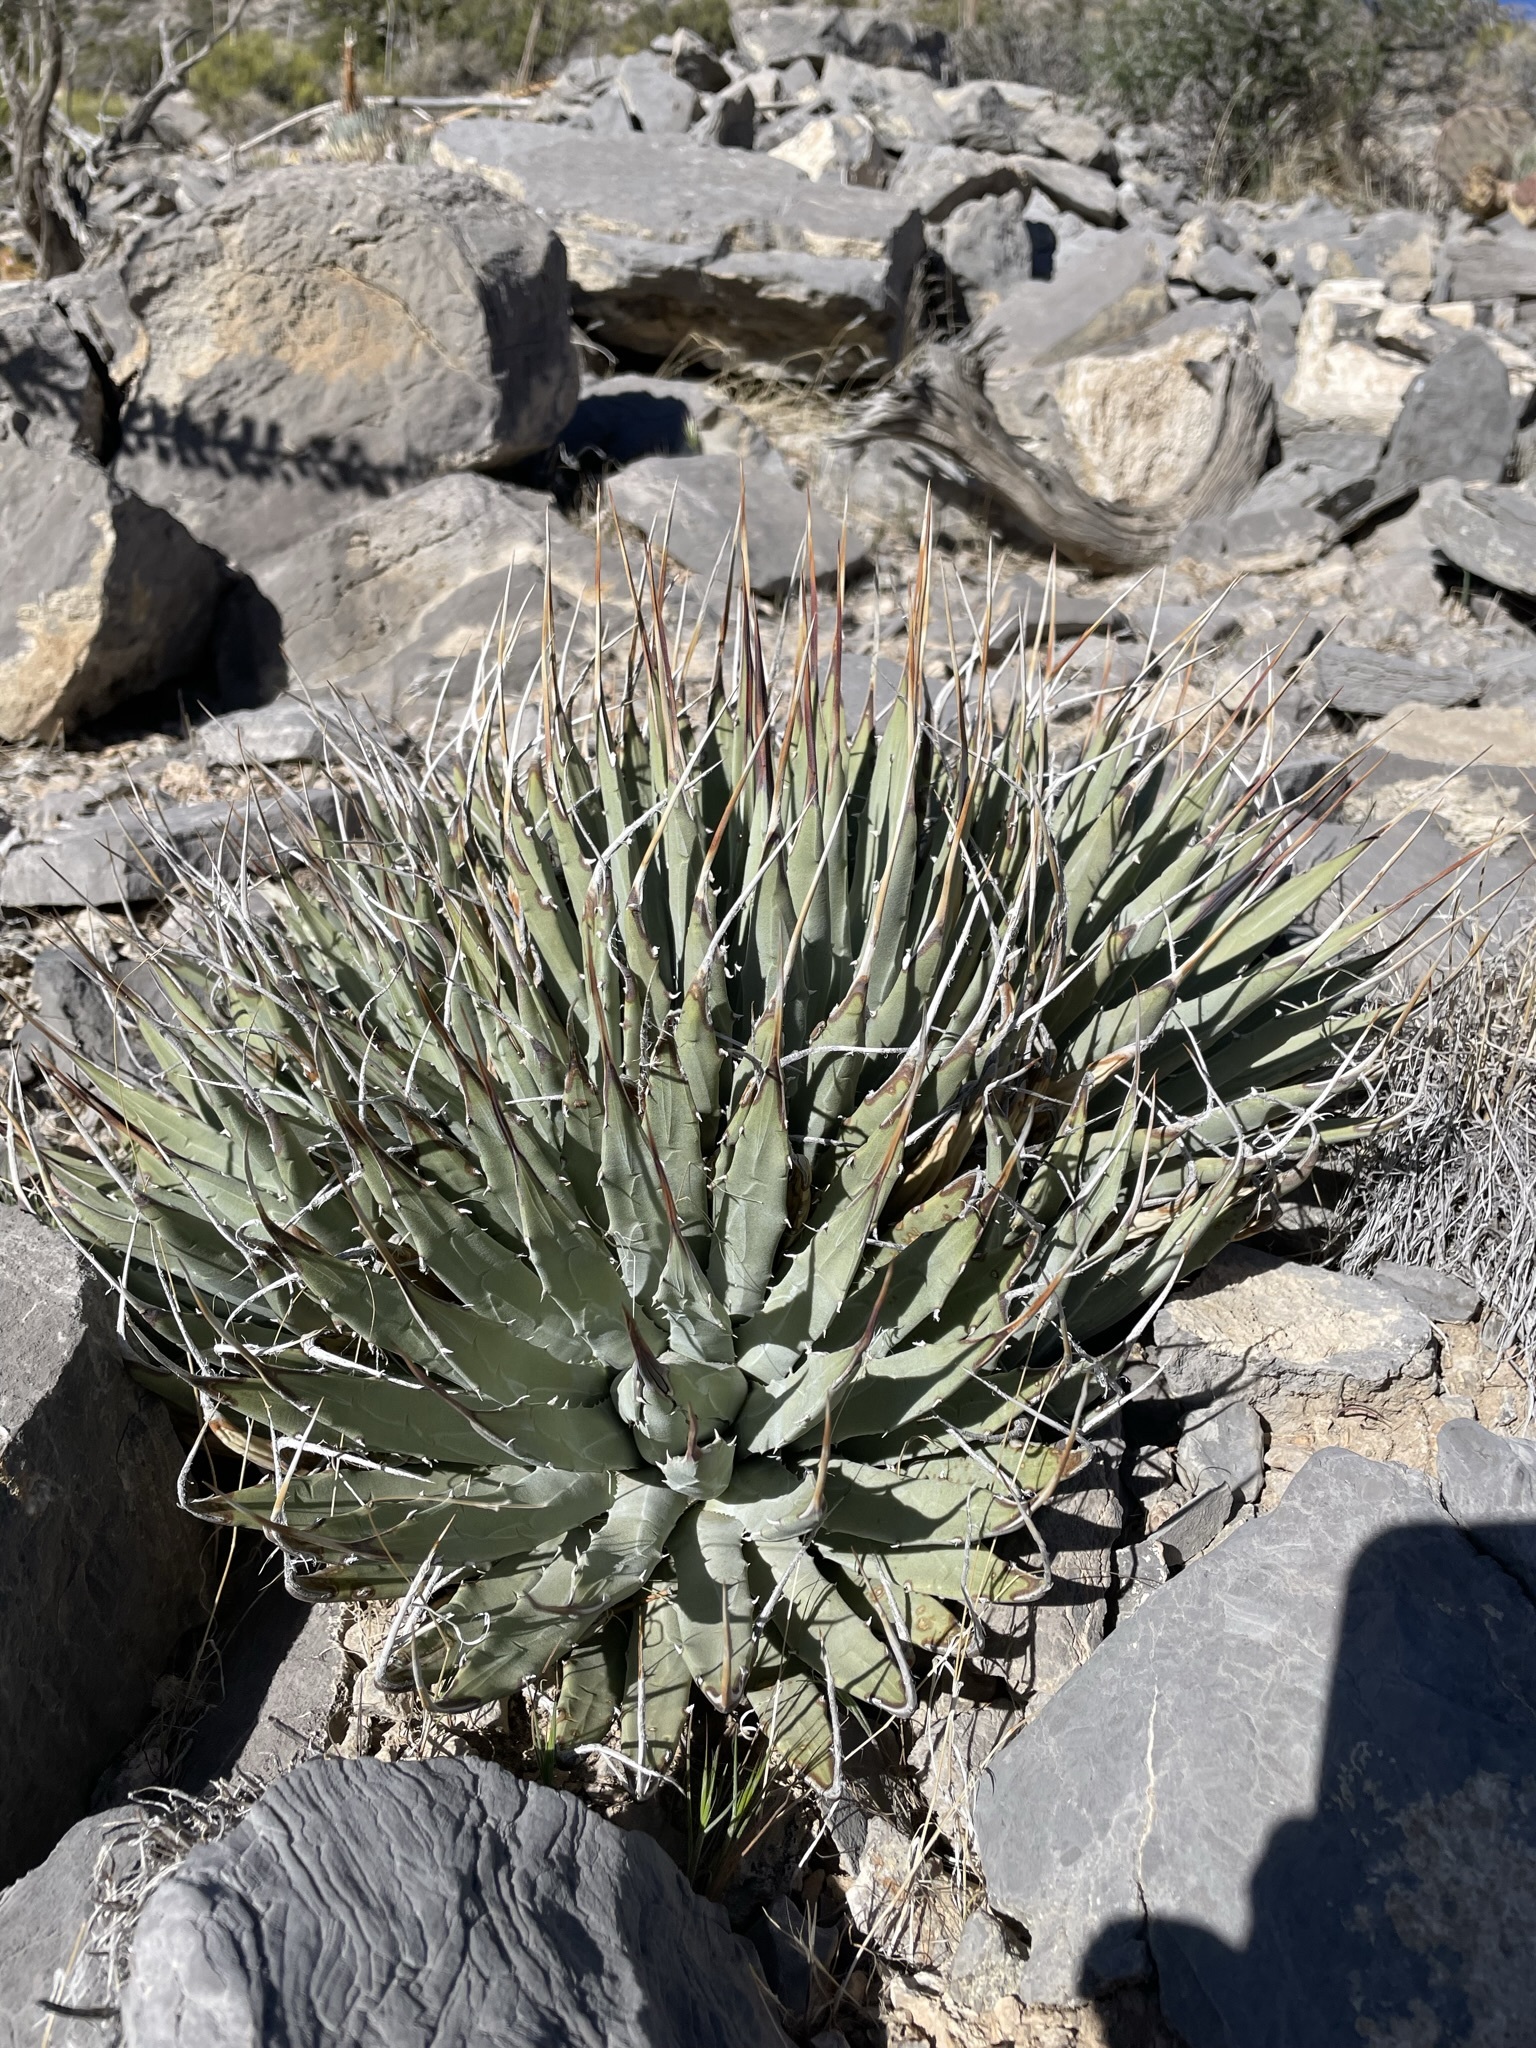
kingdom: Plantae
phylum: Tracheophyta
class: Liliopsida
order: Asparagales
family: Asparagaceae
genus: Agave
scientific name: Agave utahensis
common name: Utah agave
